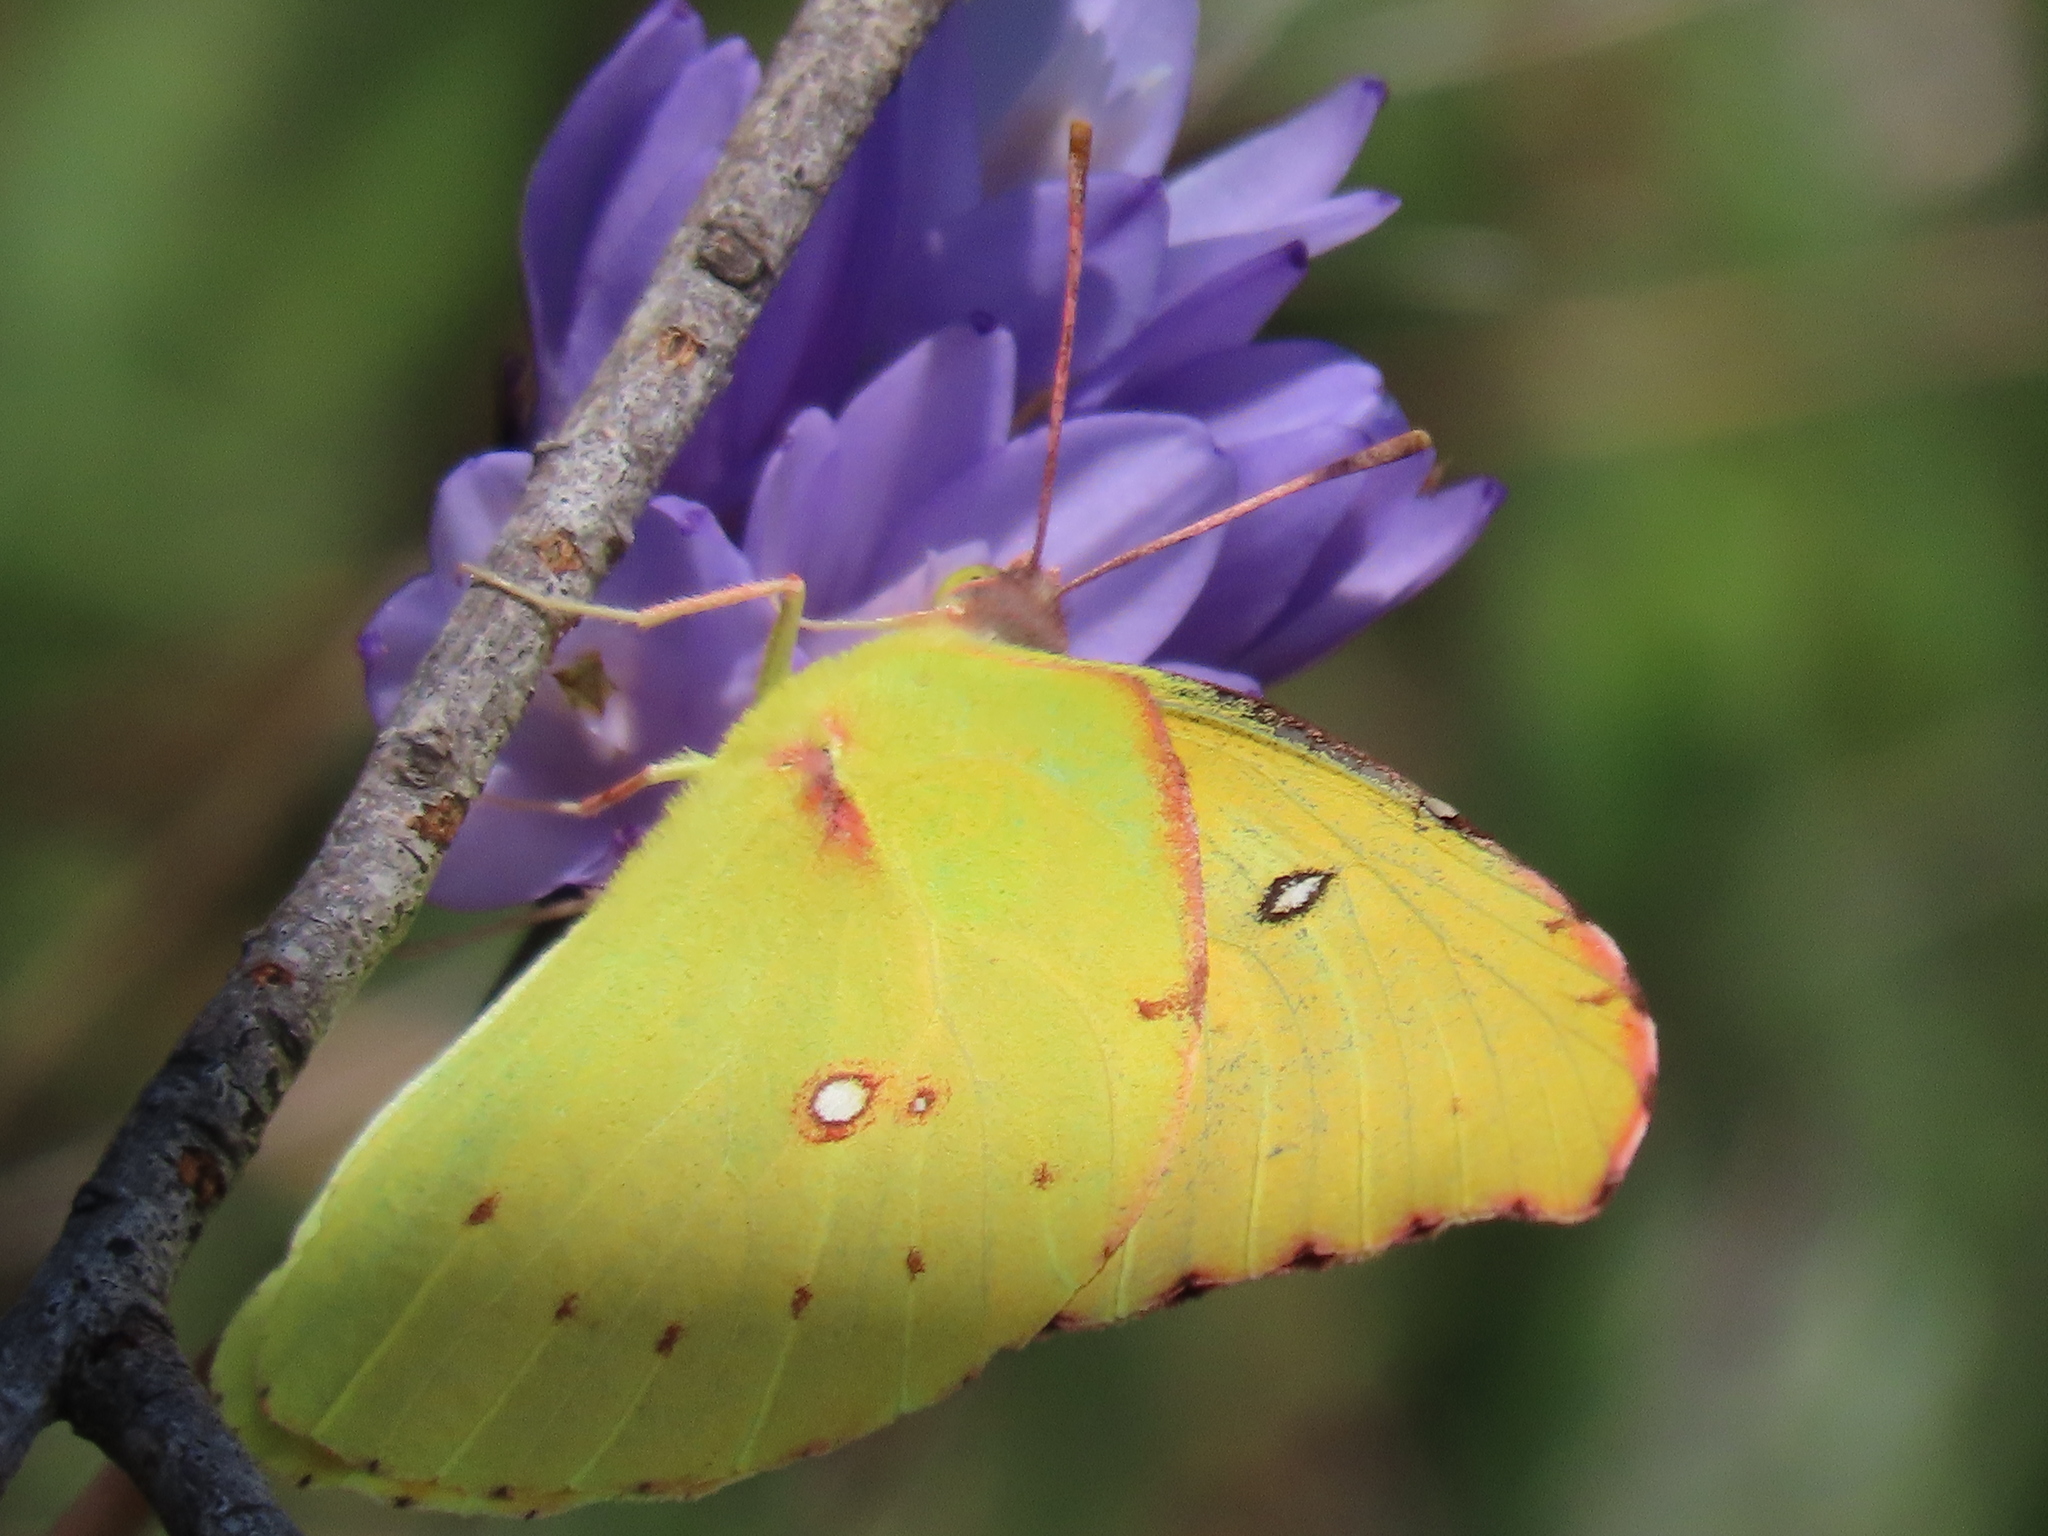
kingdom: Animalia
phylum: Arthropoda
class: Insecta
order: Lepidoptera
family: Pieridae
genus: Zerene
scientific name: Zerene eurydice
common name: California dogface
